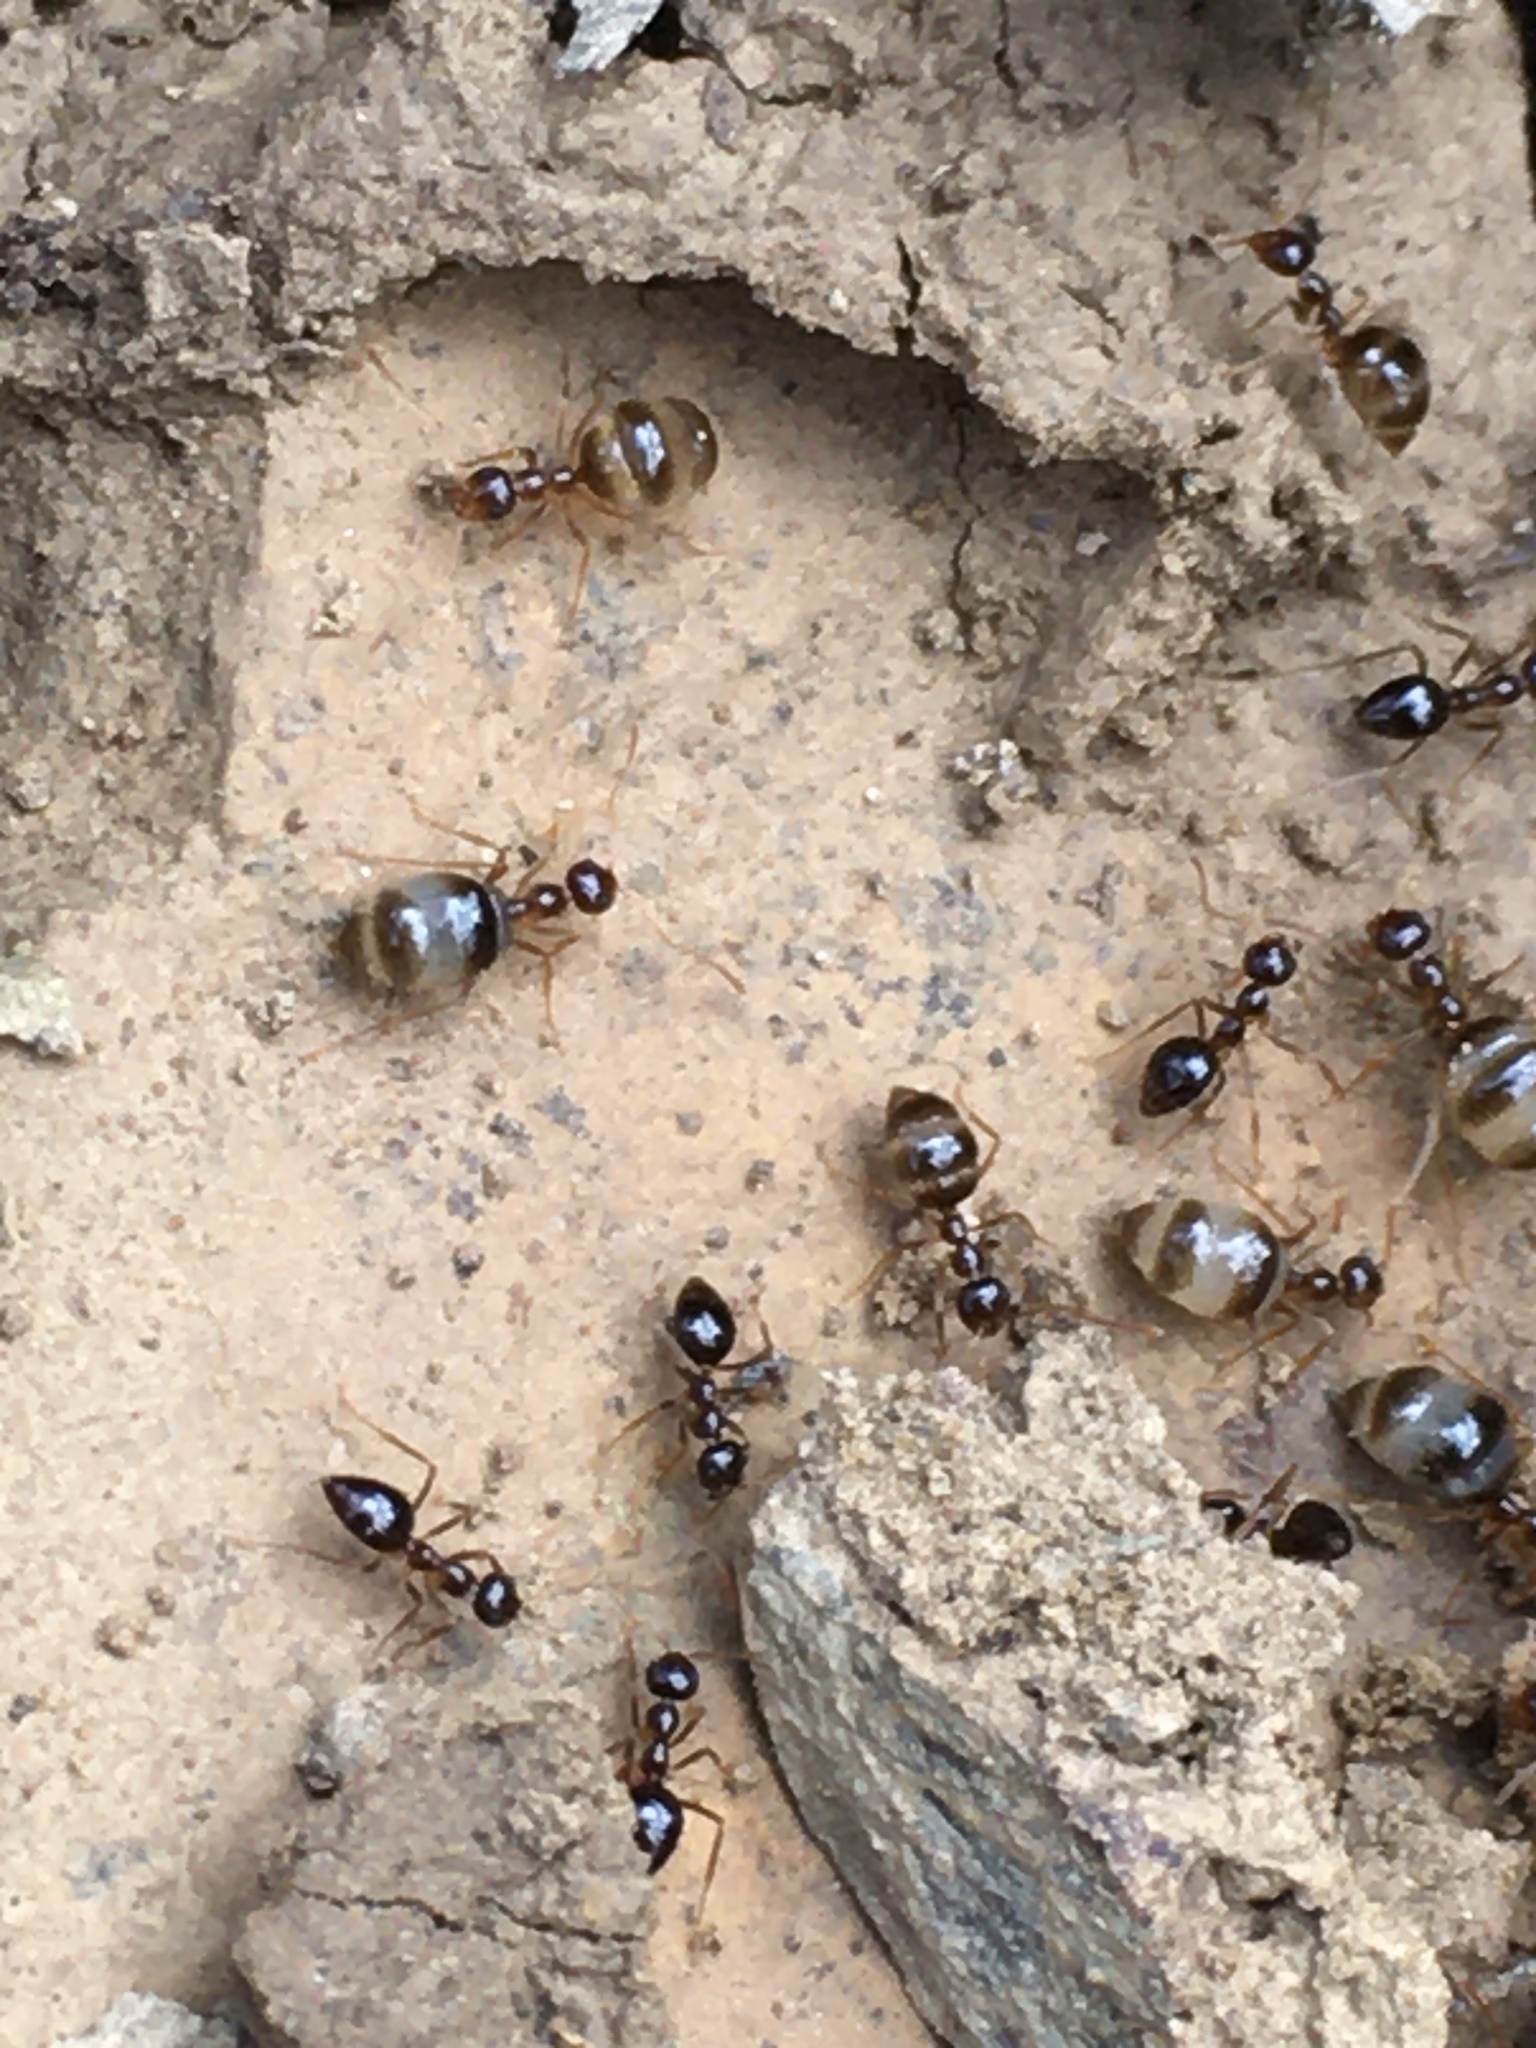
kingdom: Animalia
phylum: Arthropoda
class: Insecta
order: Hymenoptera
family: Formicidae
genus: Prenolepis
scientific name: Prenolepis imparis
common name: Small honey ant
